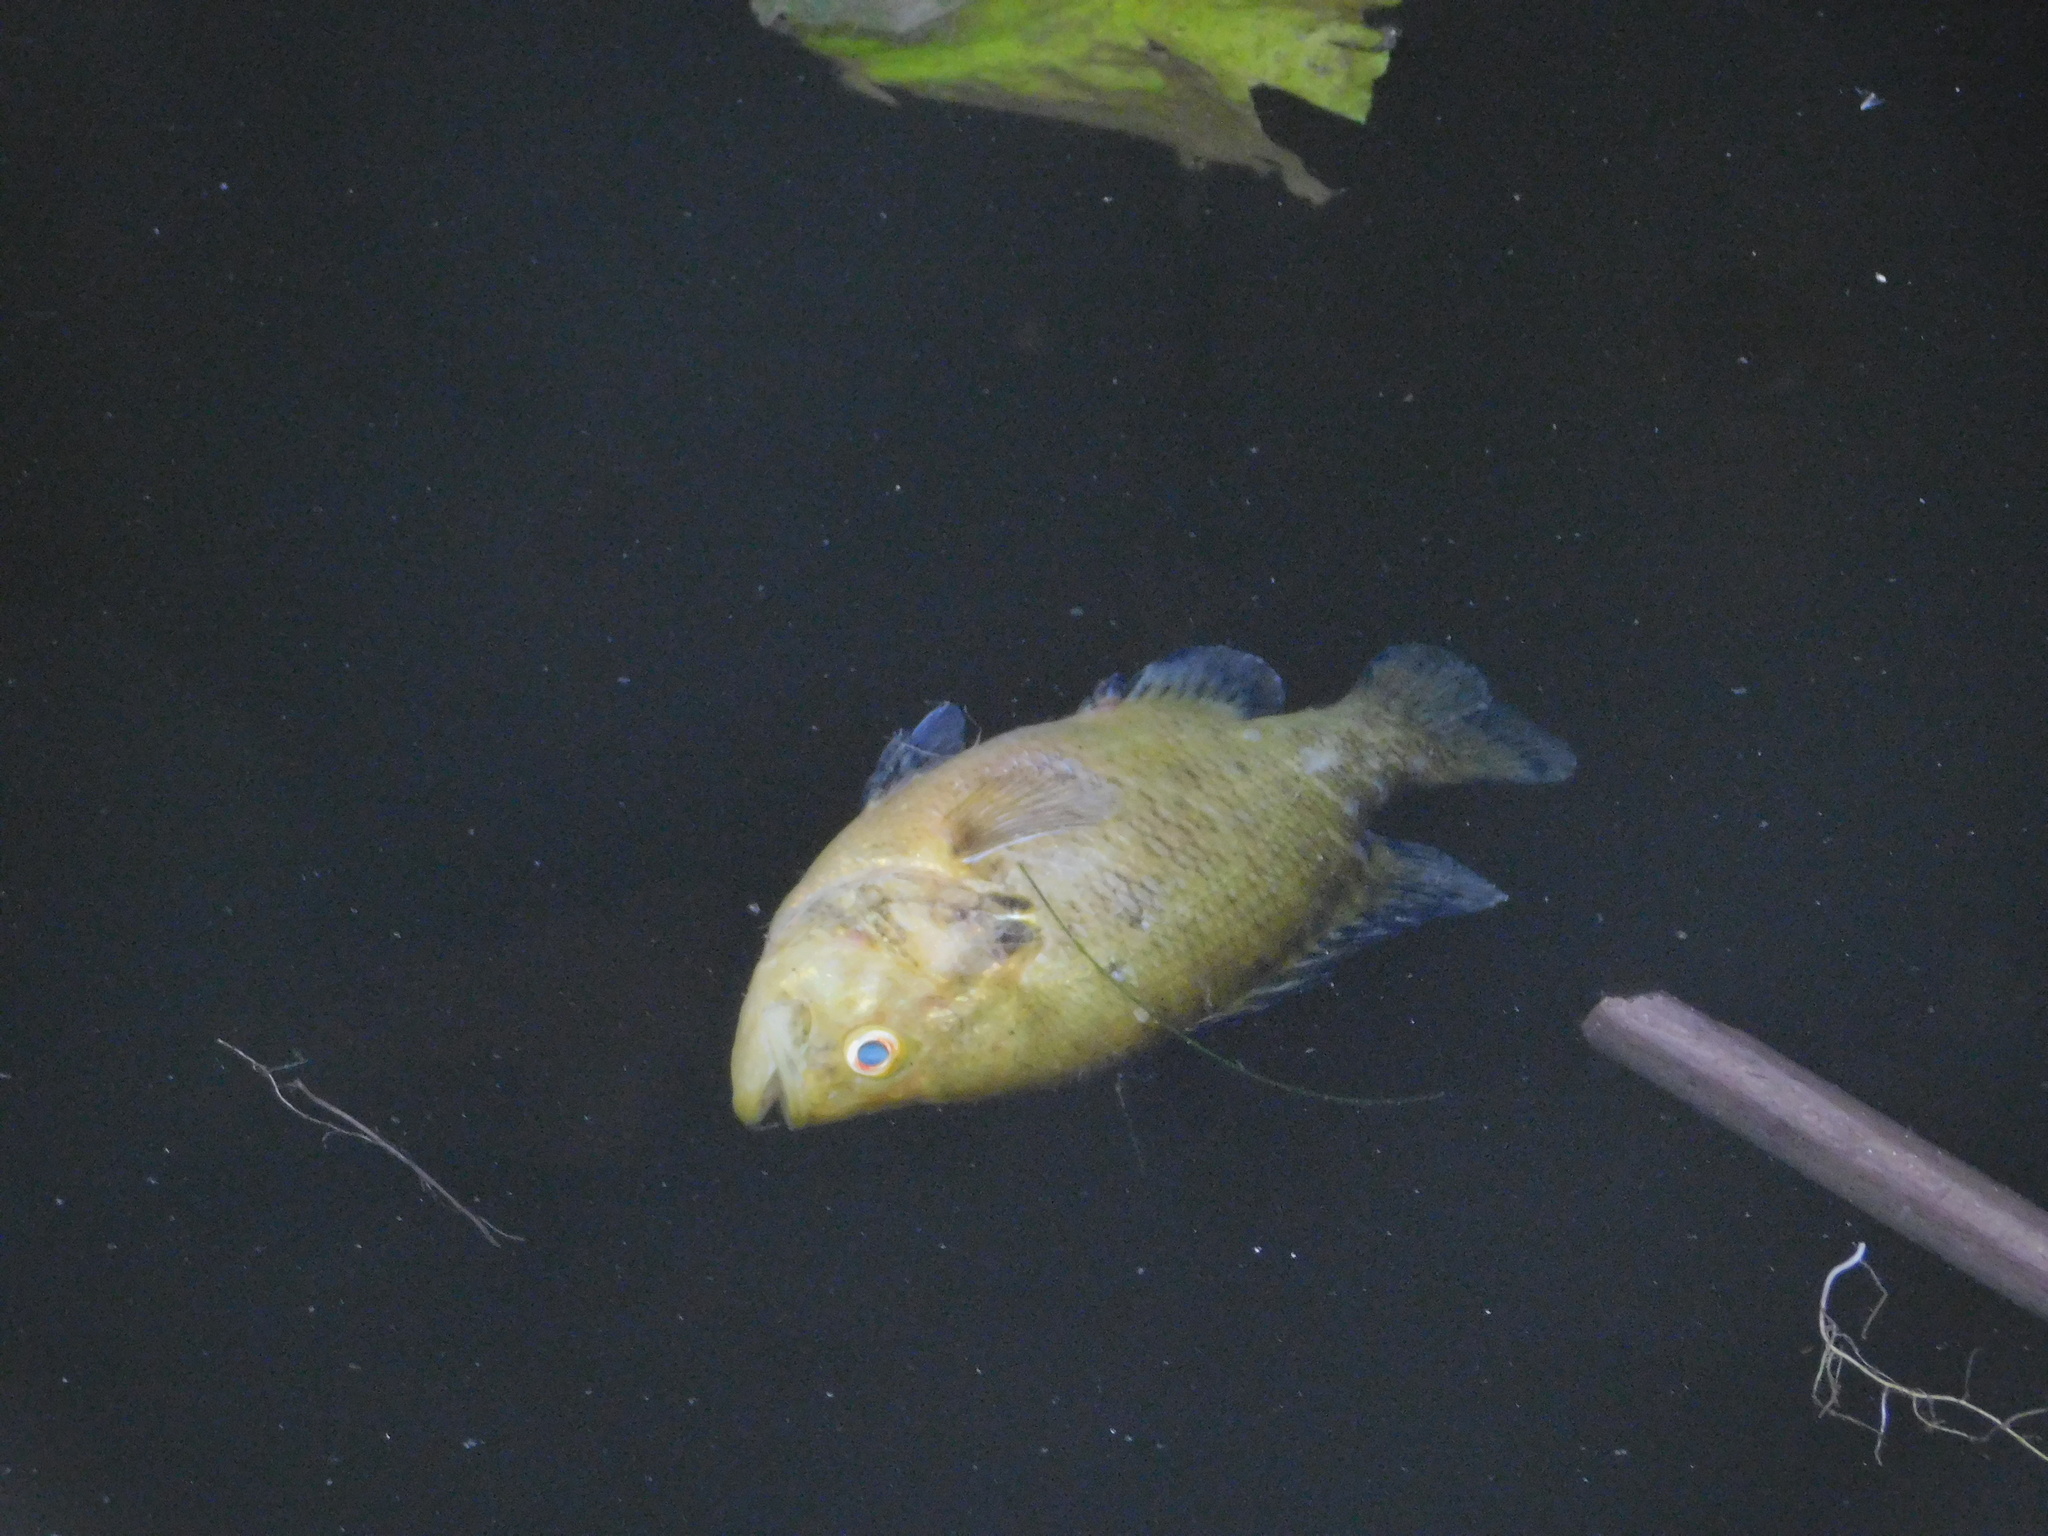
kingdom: Animalia
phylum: Chordata
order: Perciformes
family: Centrarchidae
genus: Lepomis
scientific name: Lepomis gulosus
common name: Warmouth
